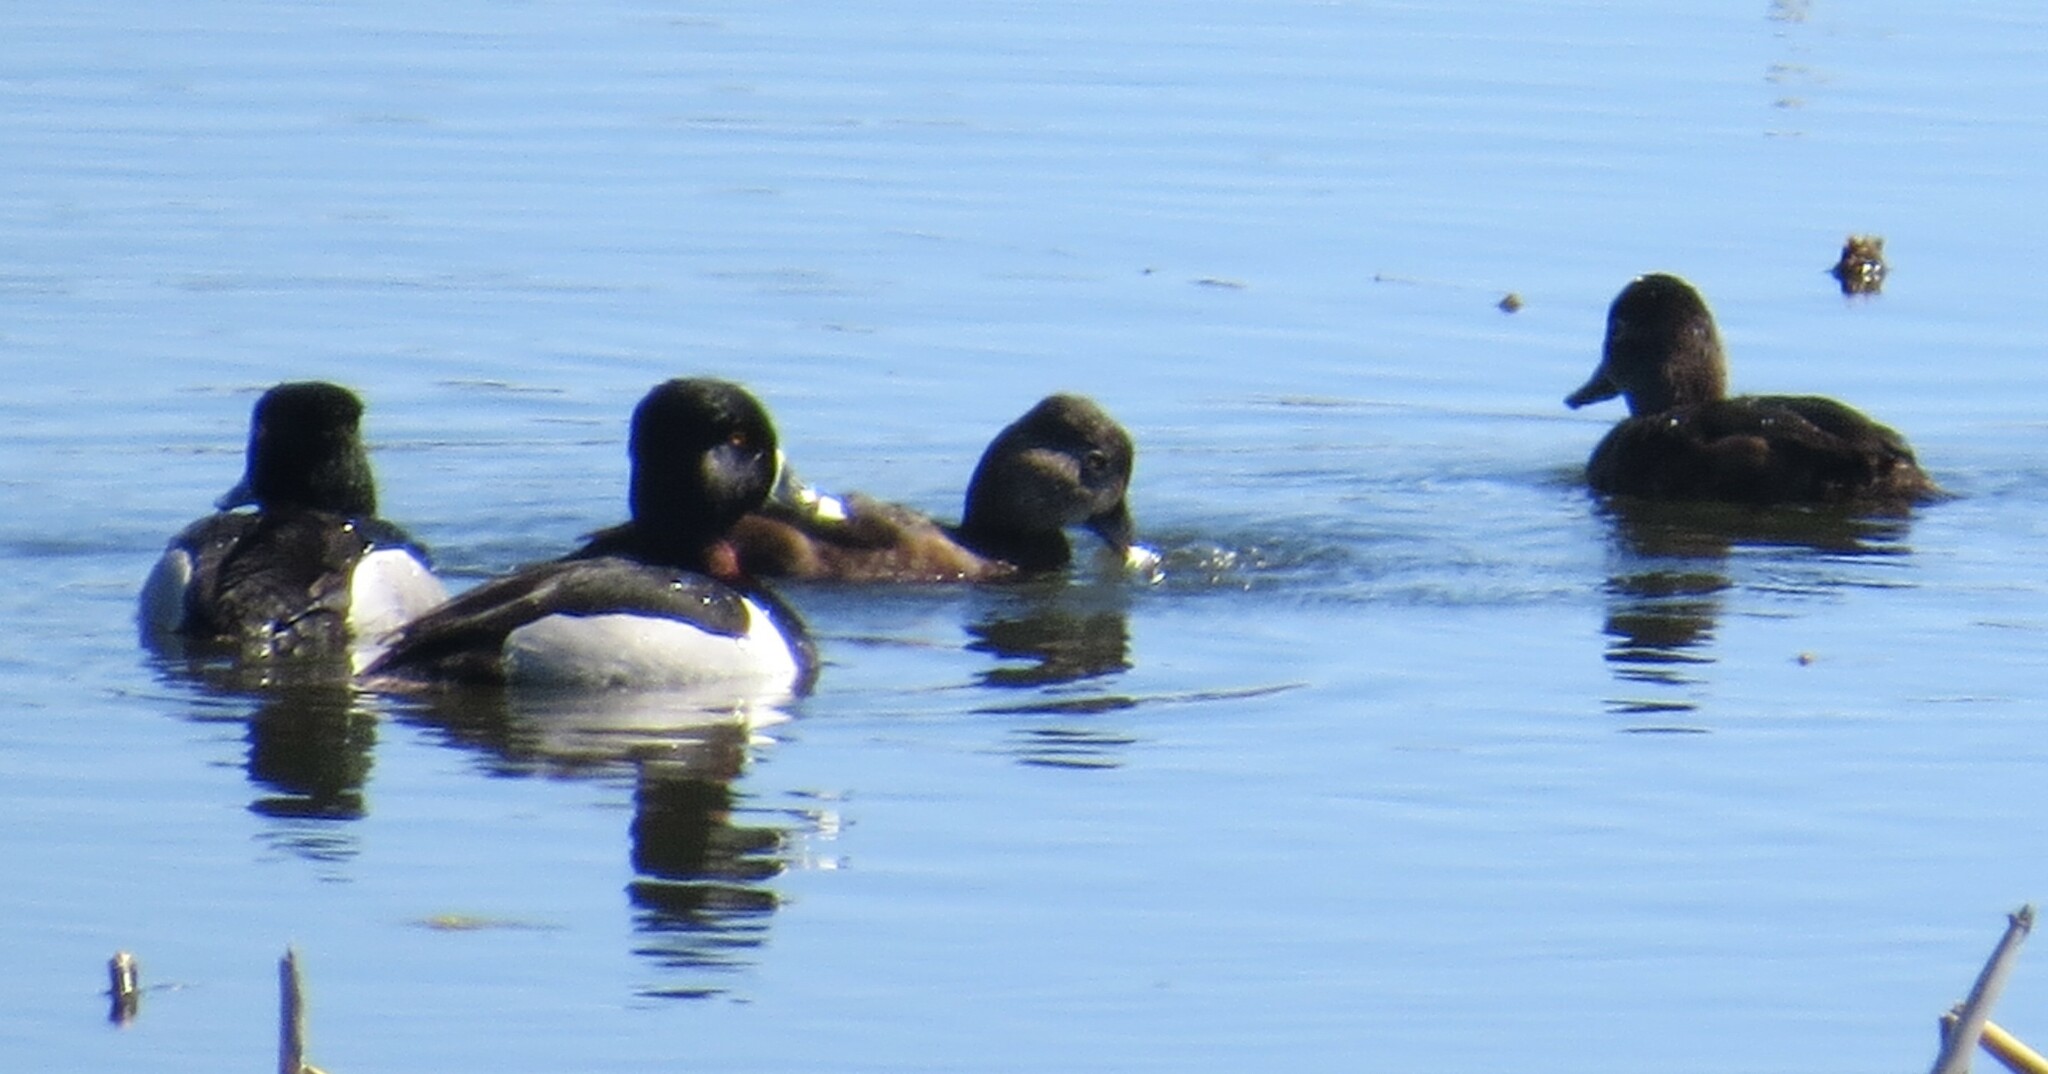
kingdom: Animalia
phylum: Chordata
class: Aves
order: Anseriformes
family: Anatidae
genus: Aythya
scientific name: Aythya collaris
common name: Ring-necked duck
